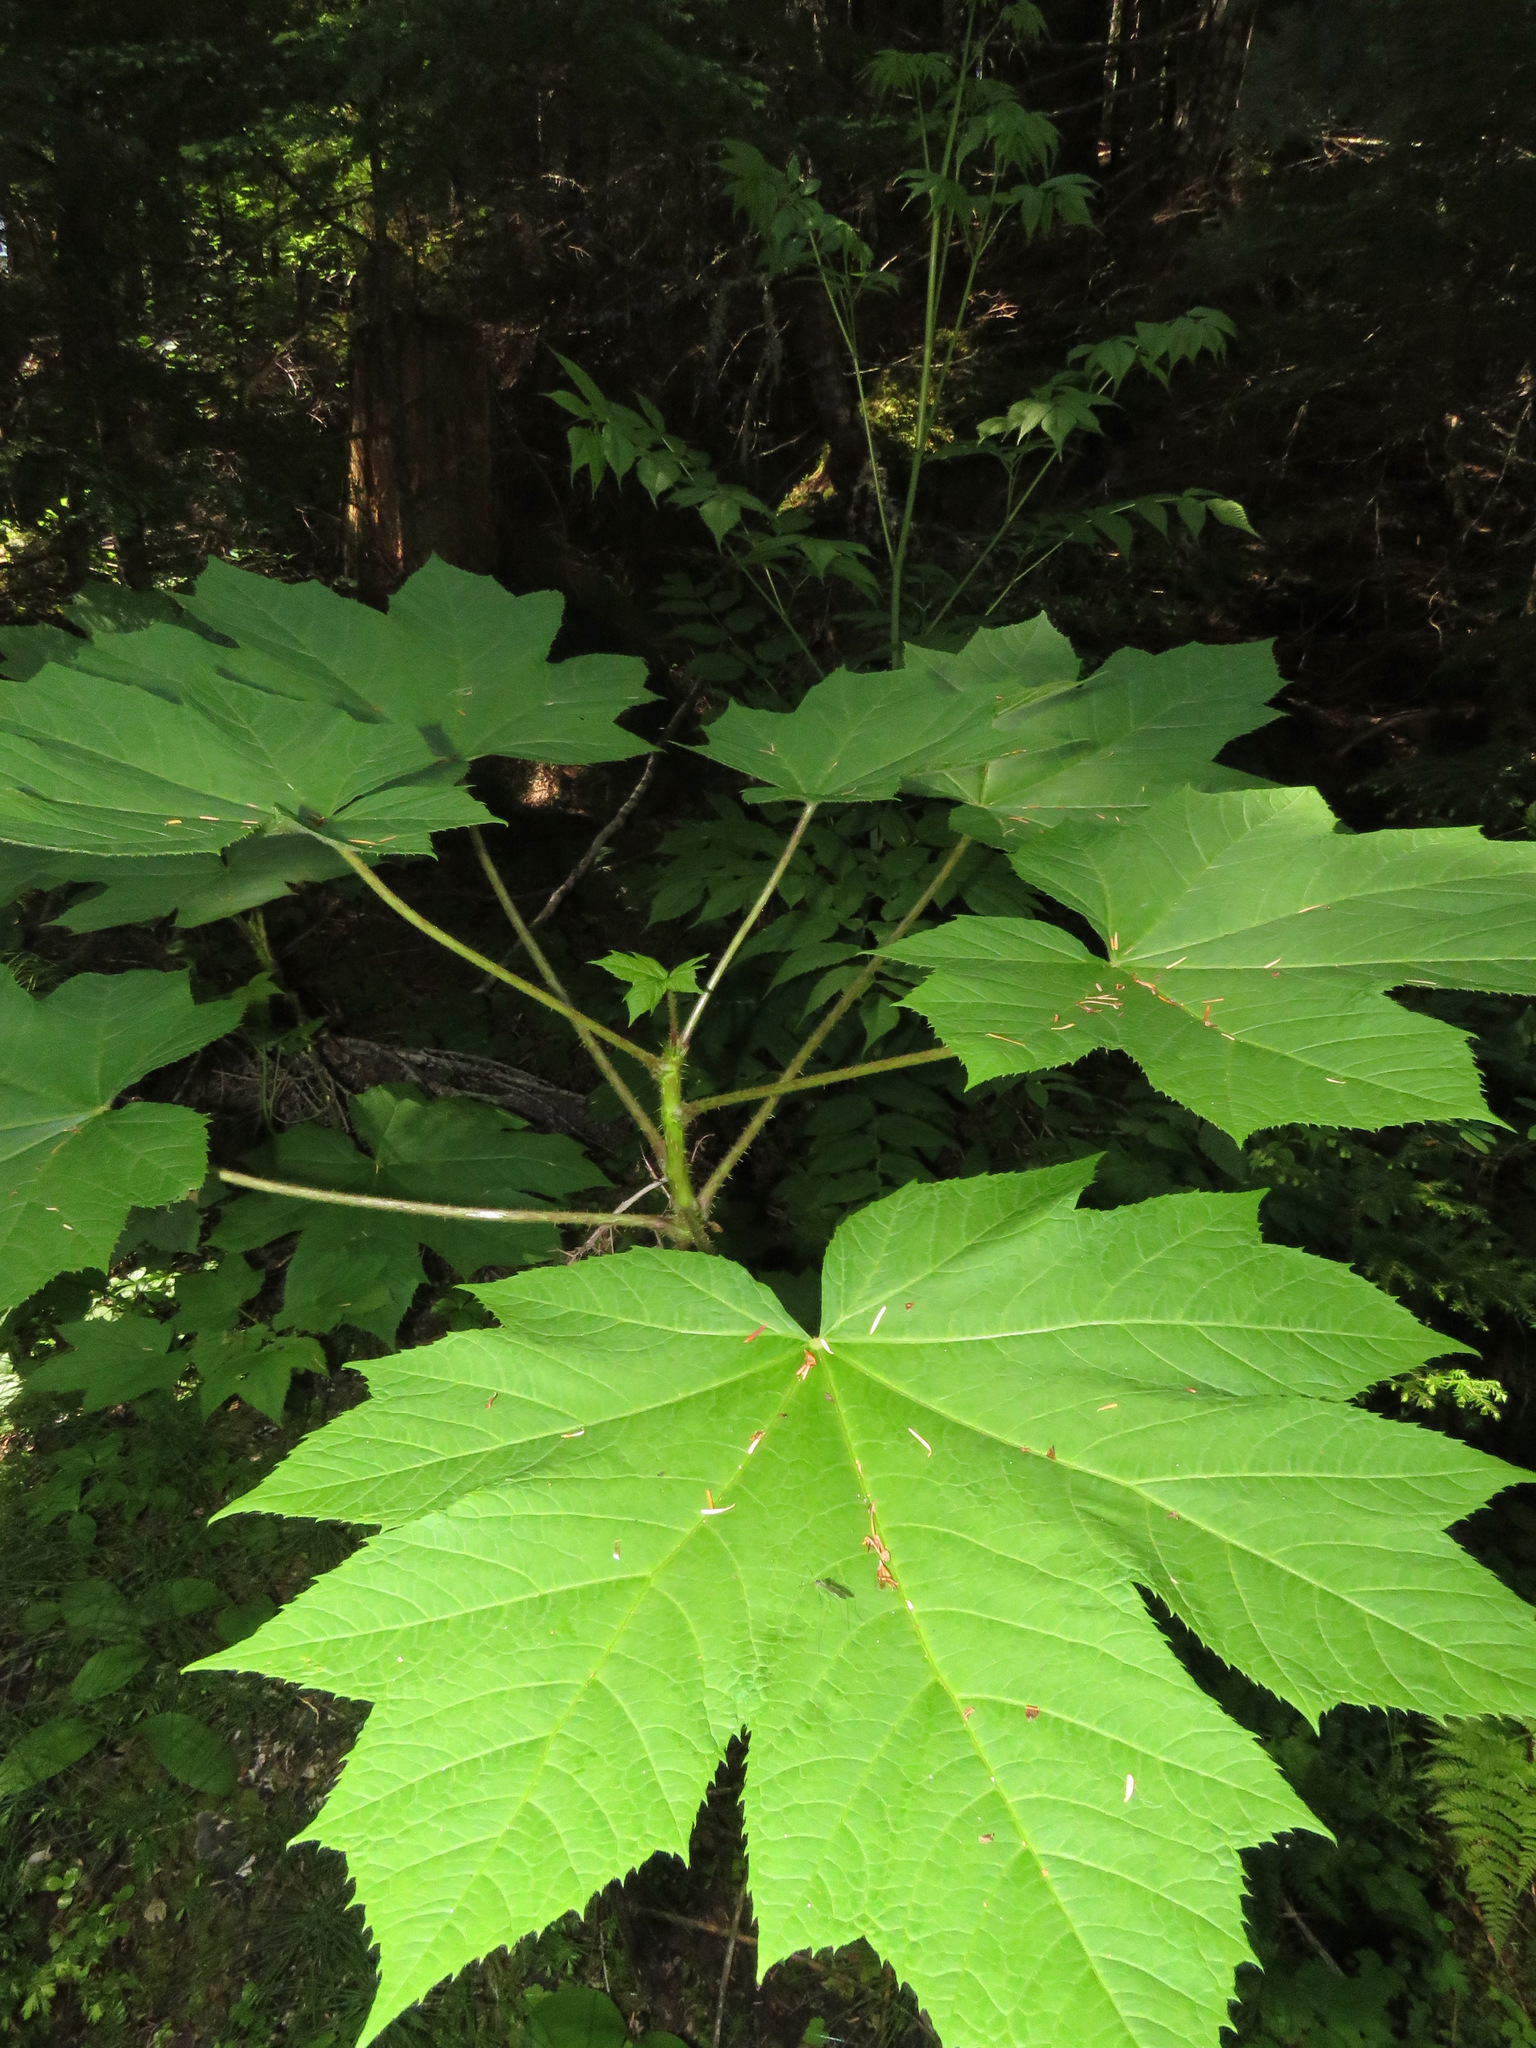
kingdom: Plantae
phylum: Tracheophyta
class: Magnoliopsida
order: Apiales
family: Araliaceae
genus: Oplopanax
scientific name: Oplopanax horridus
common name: Devil's walking-stick
